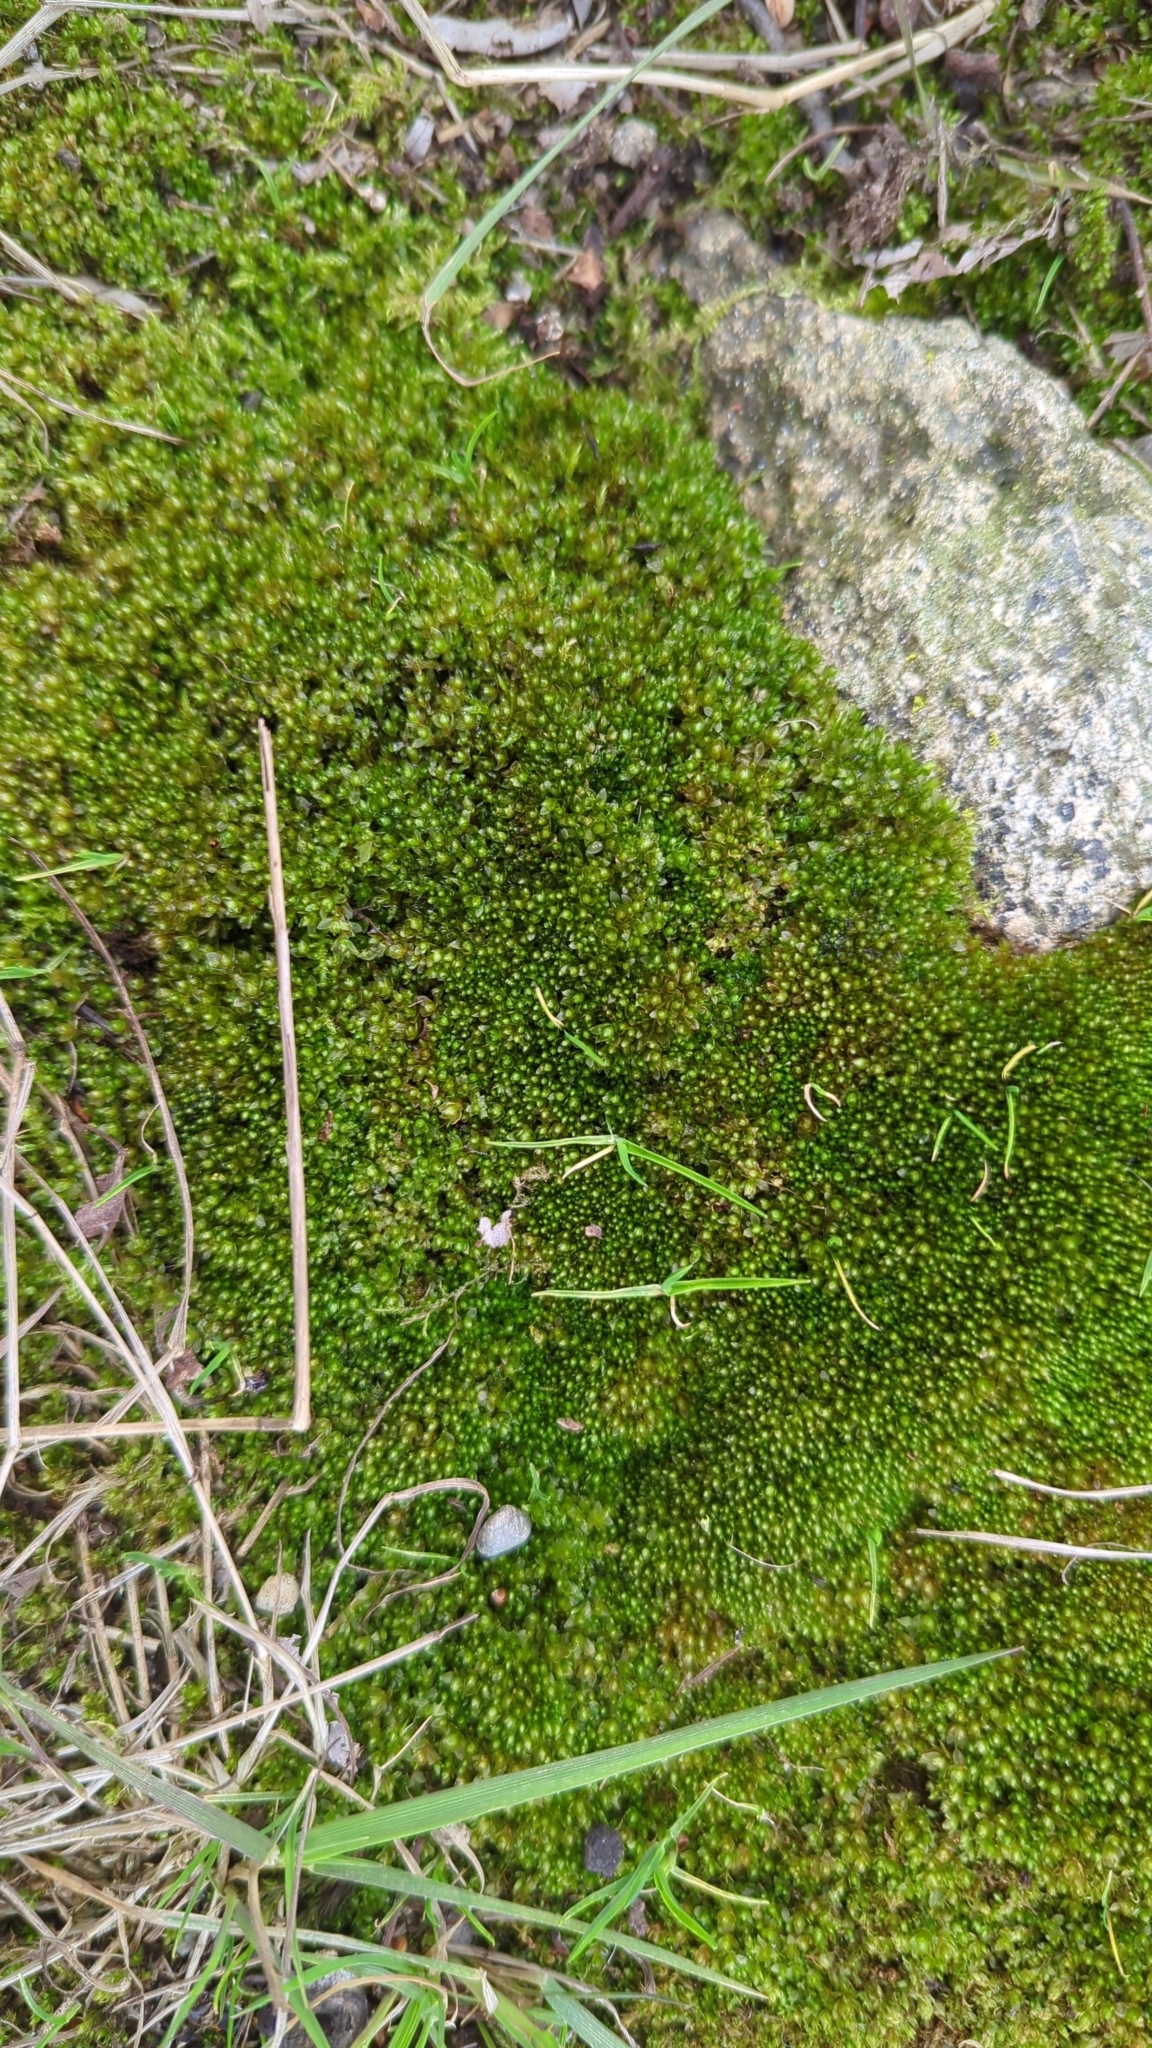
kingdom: Plantae
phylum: Bryophyta
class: Bryopsida
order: Bryales
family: Bryaceae
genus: Rosulabryum
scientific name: Rosulabryum capillare
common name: Capillary thread-moss
